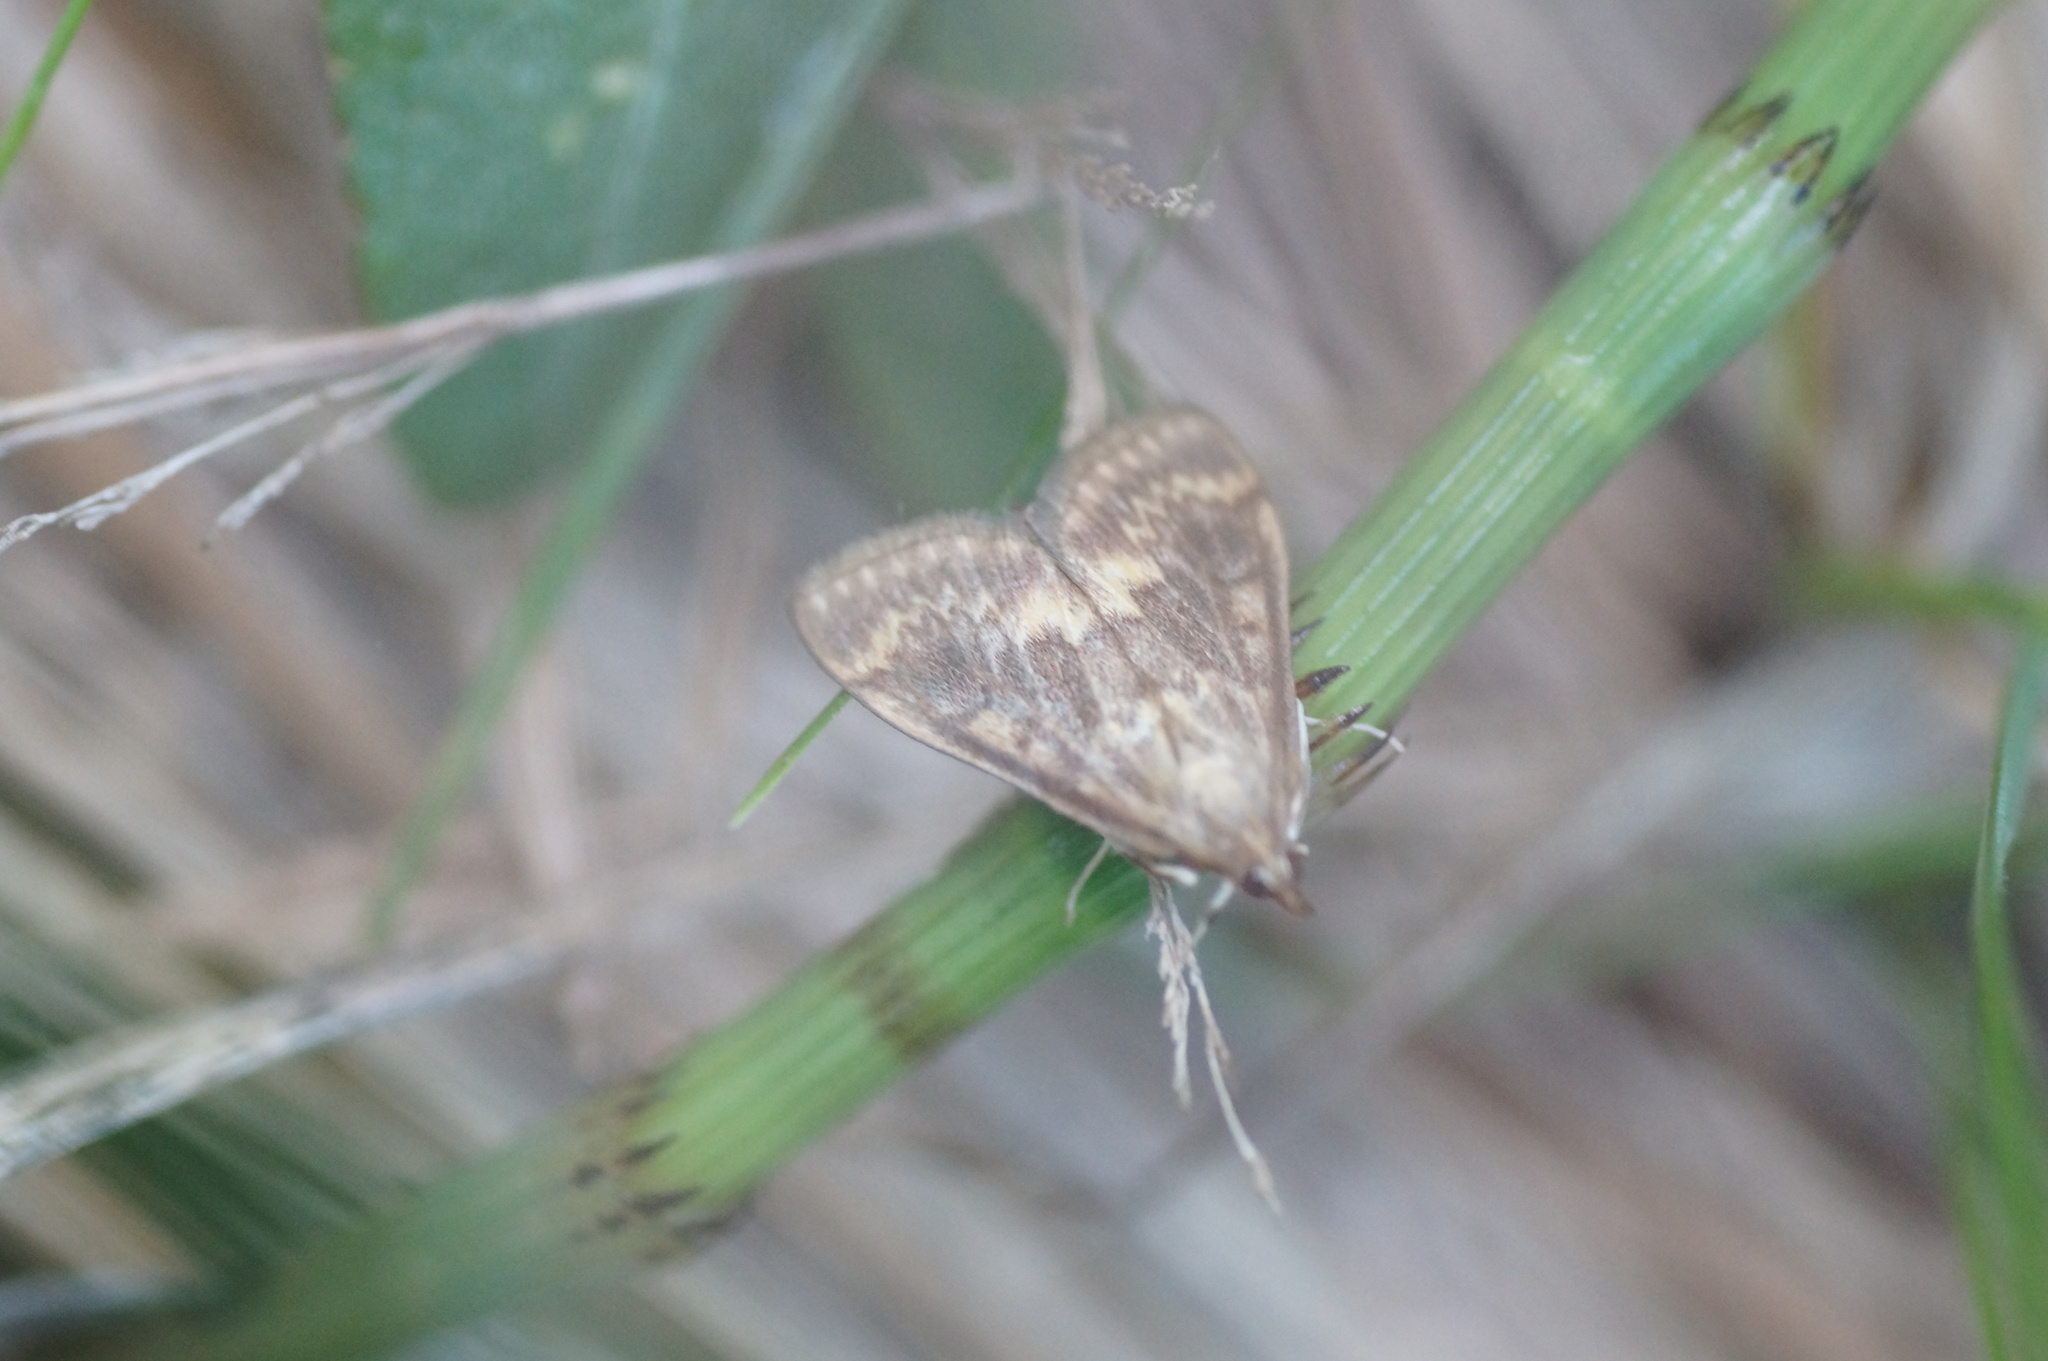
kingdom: Animalia
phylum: Arthropoda
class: Insecta
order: Lepidoptera
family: Crambidae
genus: Ostrinia
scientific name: Ostrinia nubilalis
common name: European corn borer
